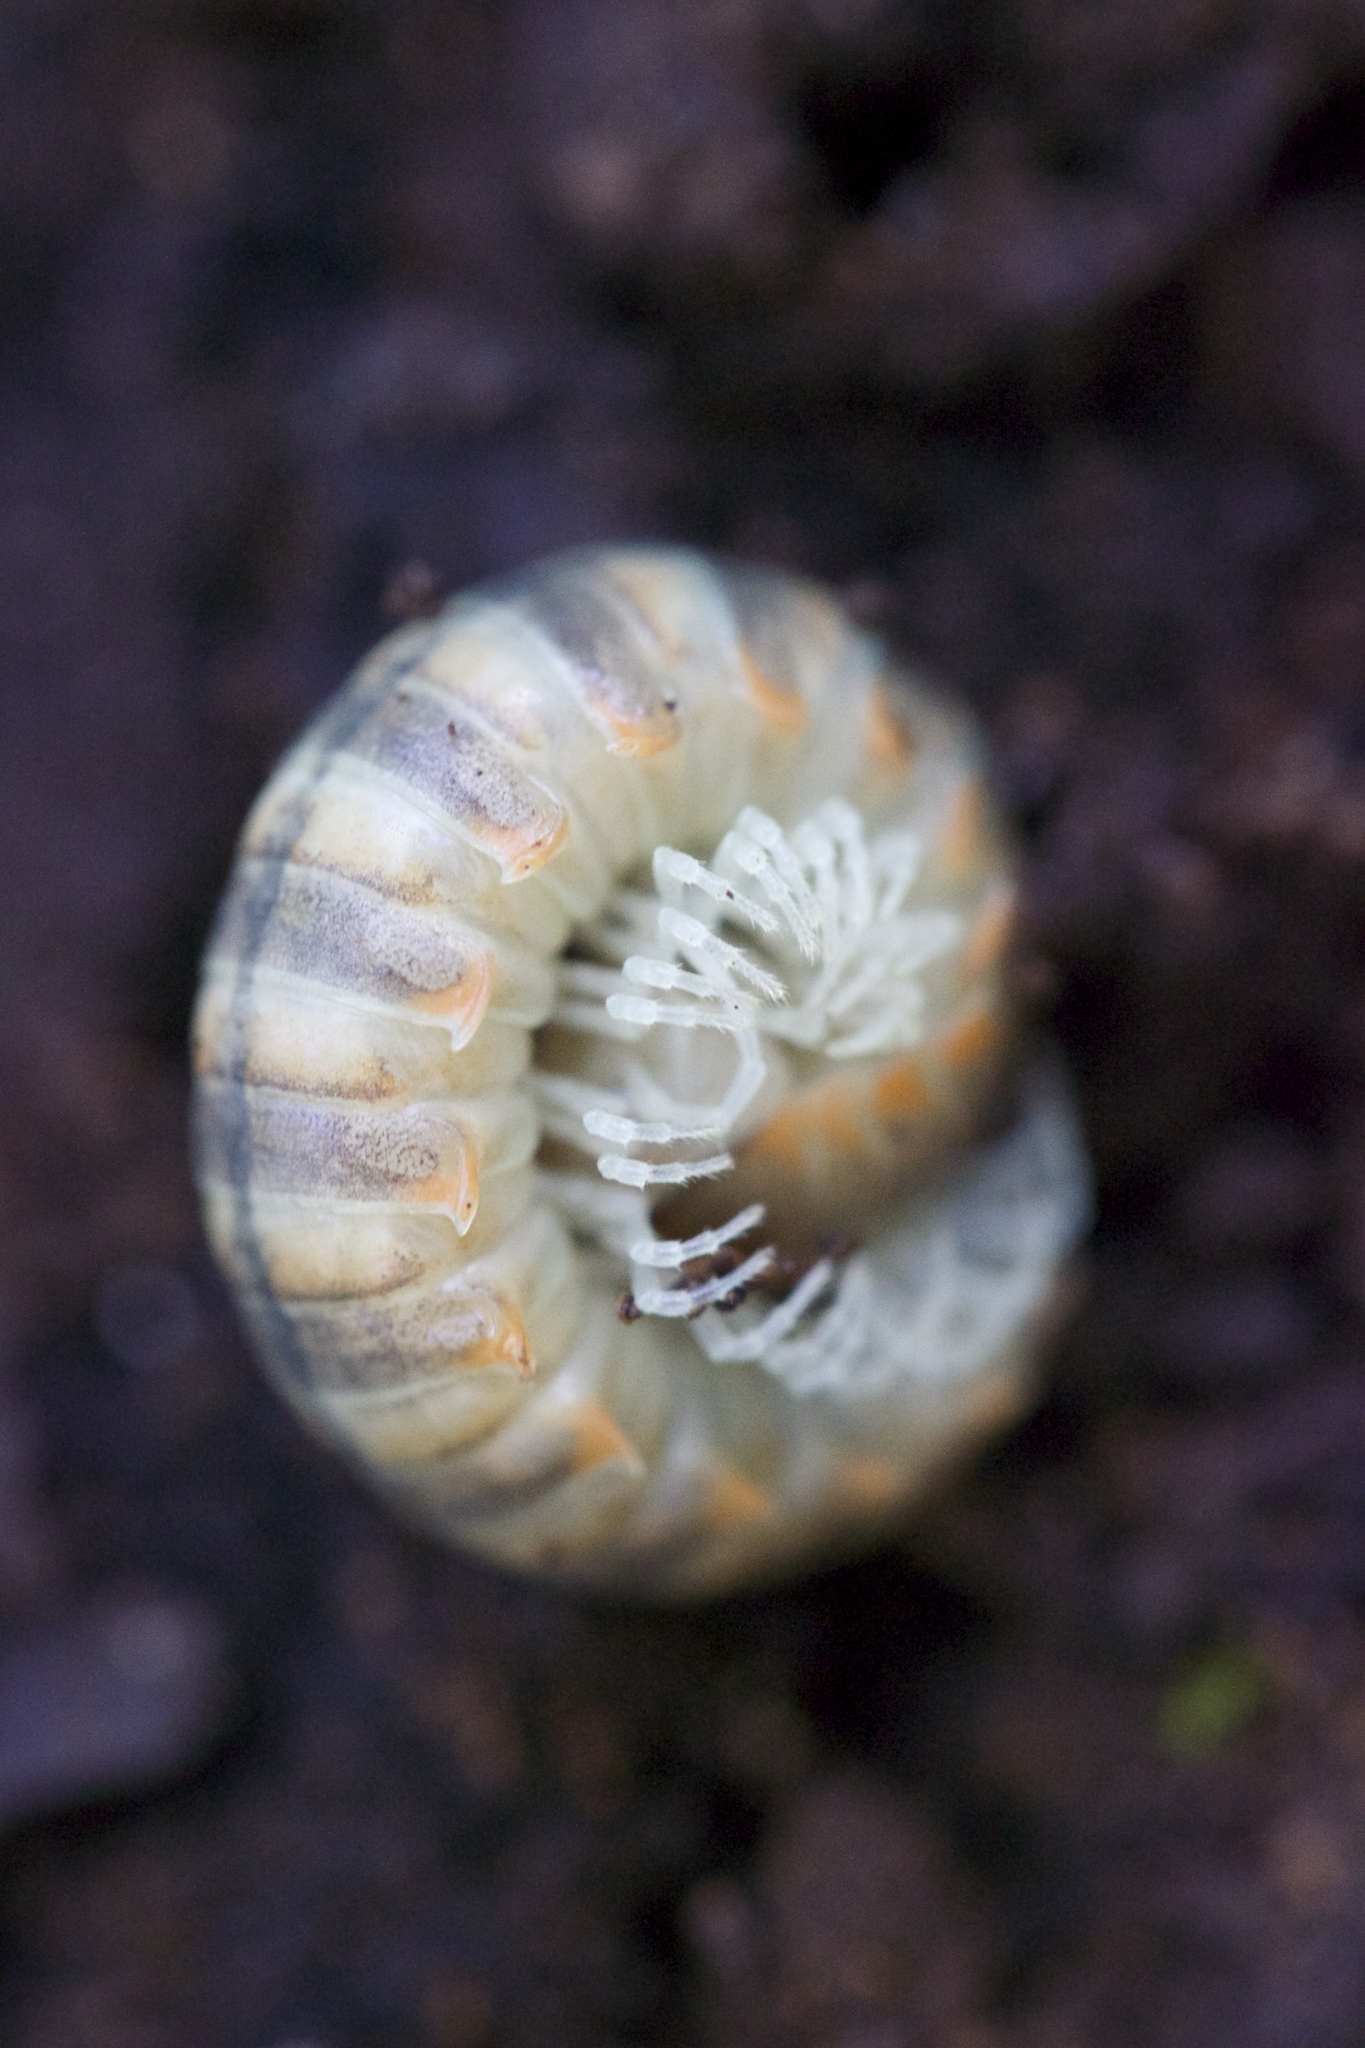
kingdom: Animalia
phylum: Arthropoda
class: Diplopoda
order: Polydesmida
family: Xystodesmidae
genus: Xystocheir
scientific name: Xystocheir dissecta
